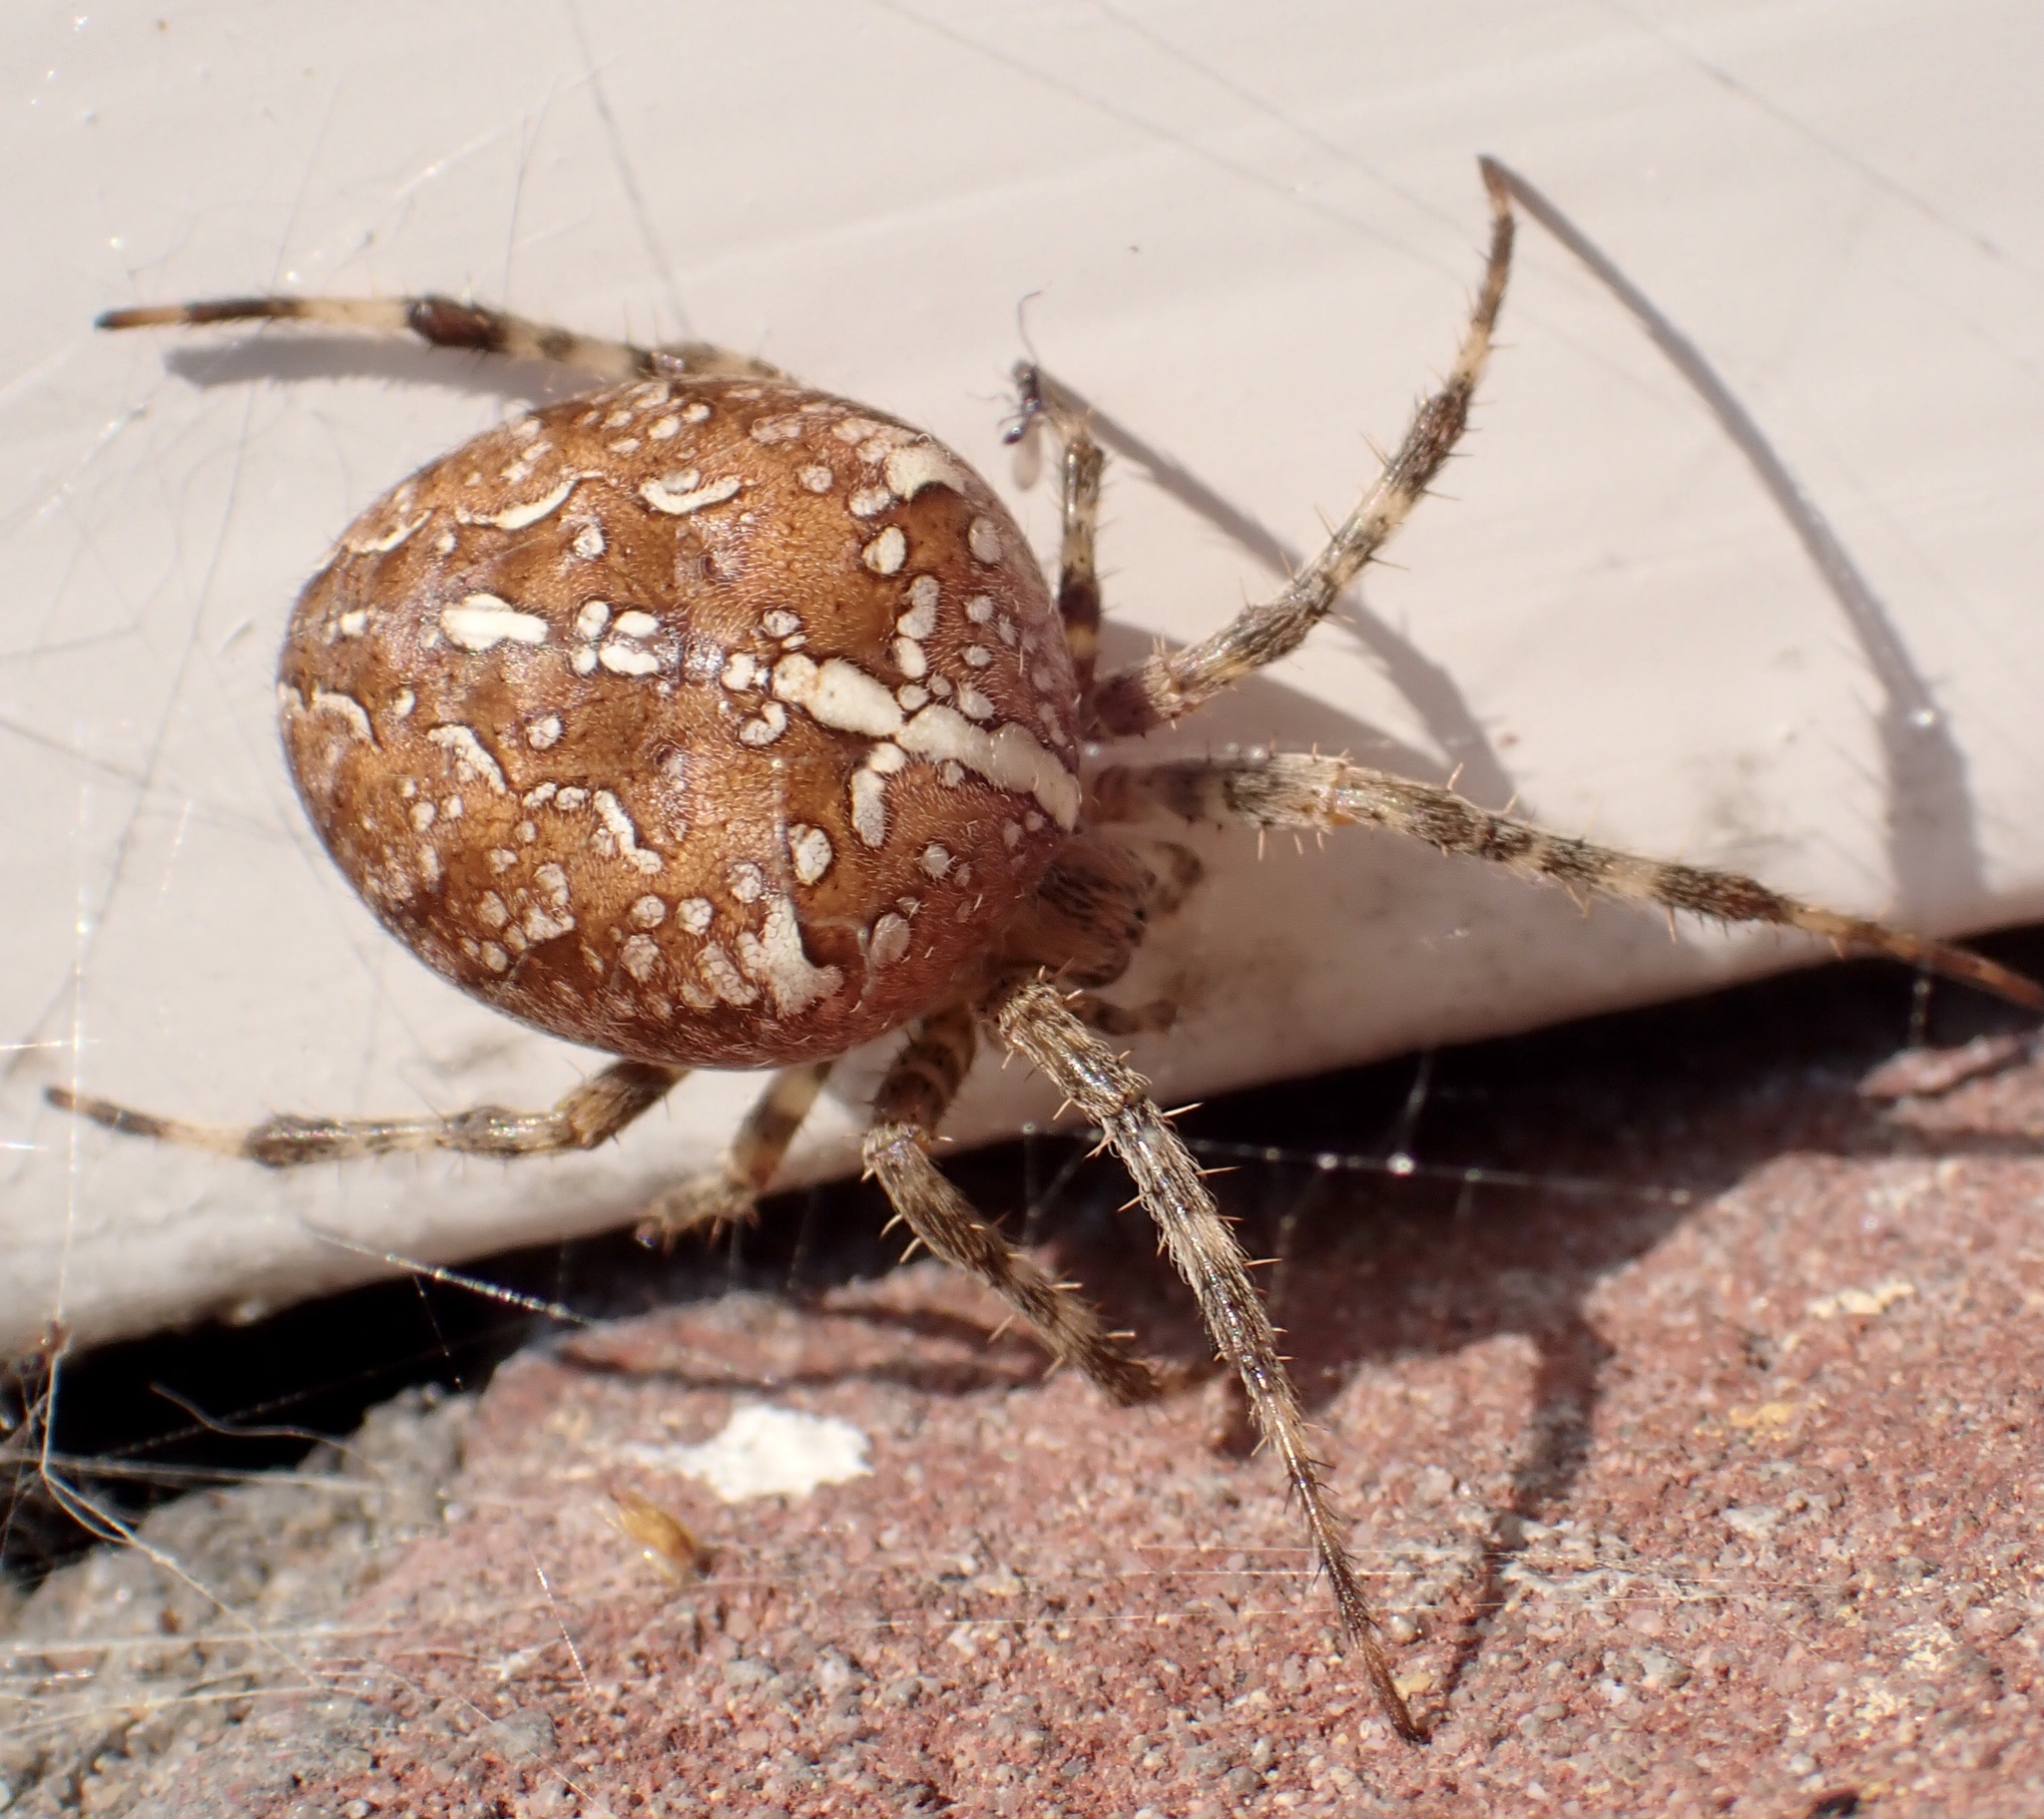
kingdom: Animalia
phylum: Arthropoda
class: Arachnida
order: Araneae
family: Araneidae
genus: Araneus
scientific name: Araneus diadematus
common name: Cross orbweaver
